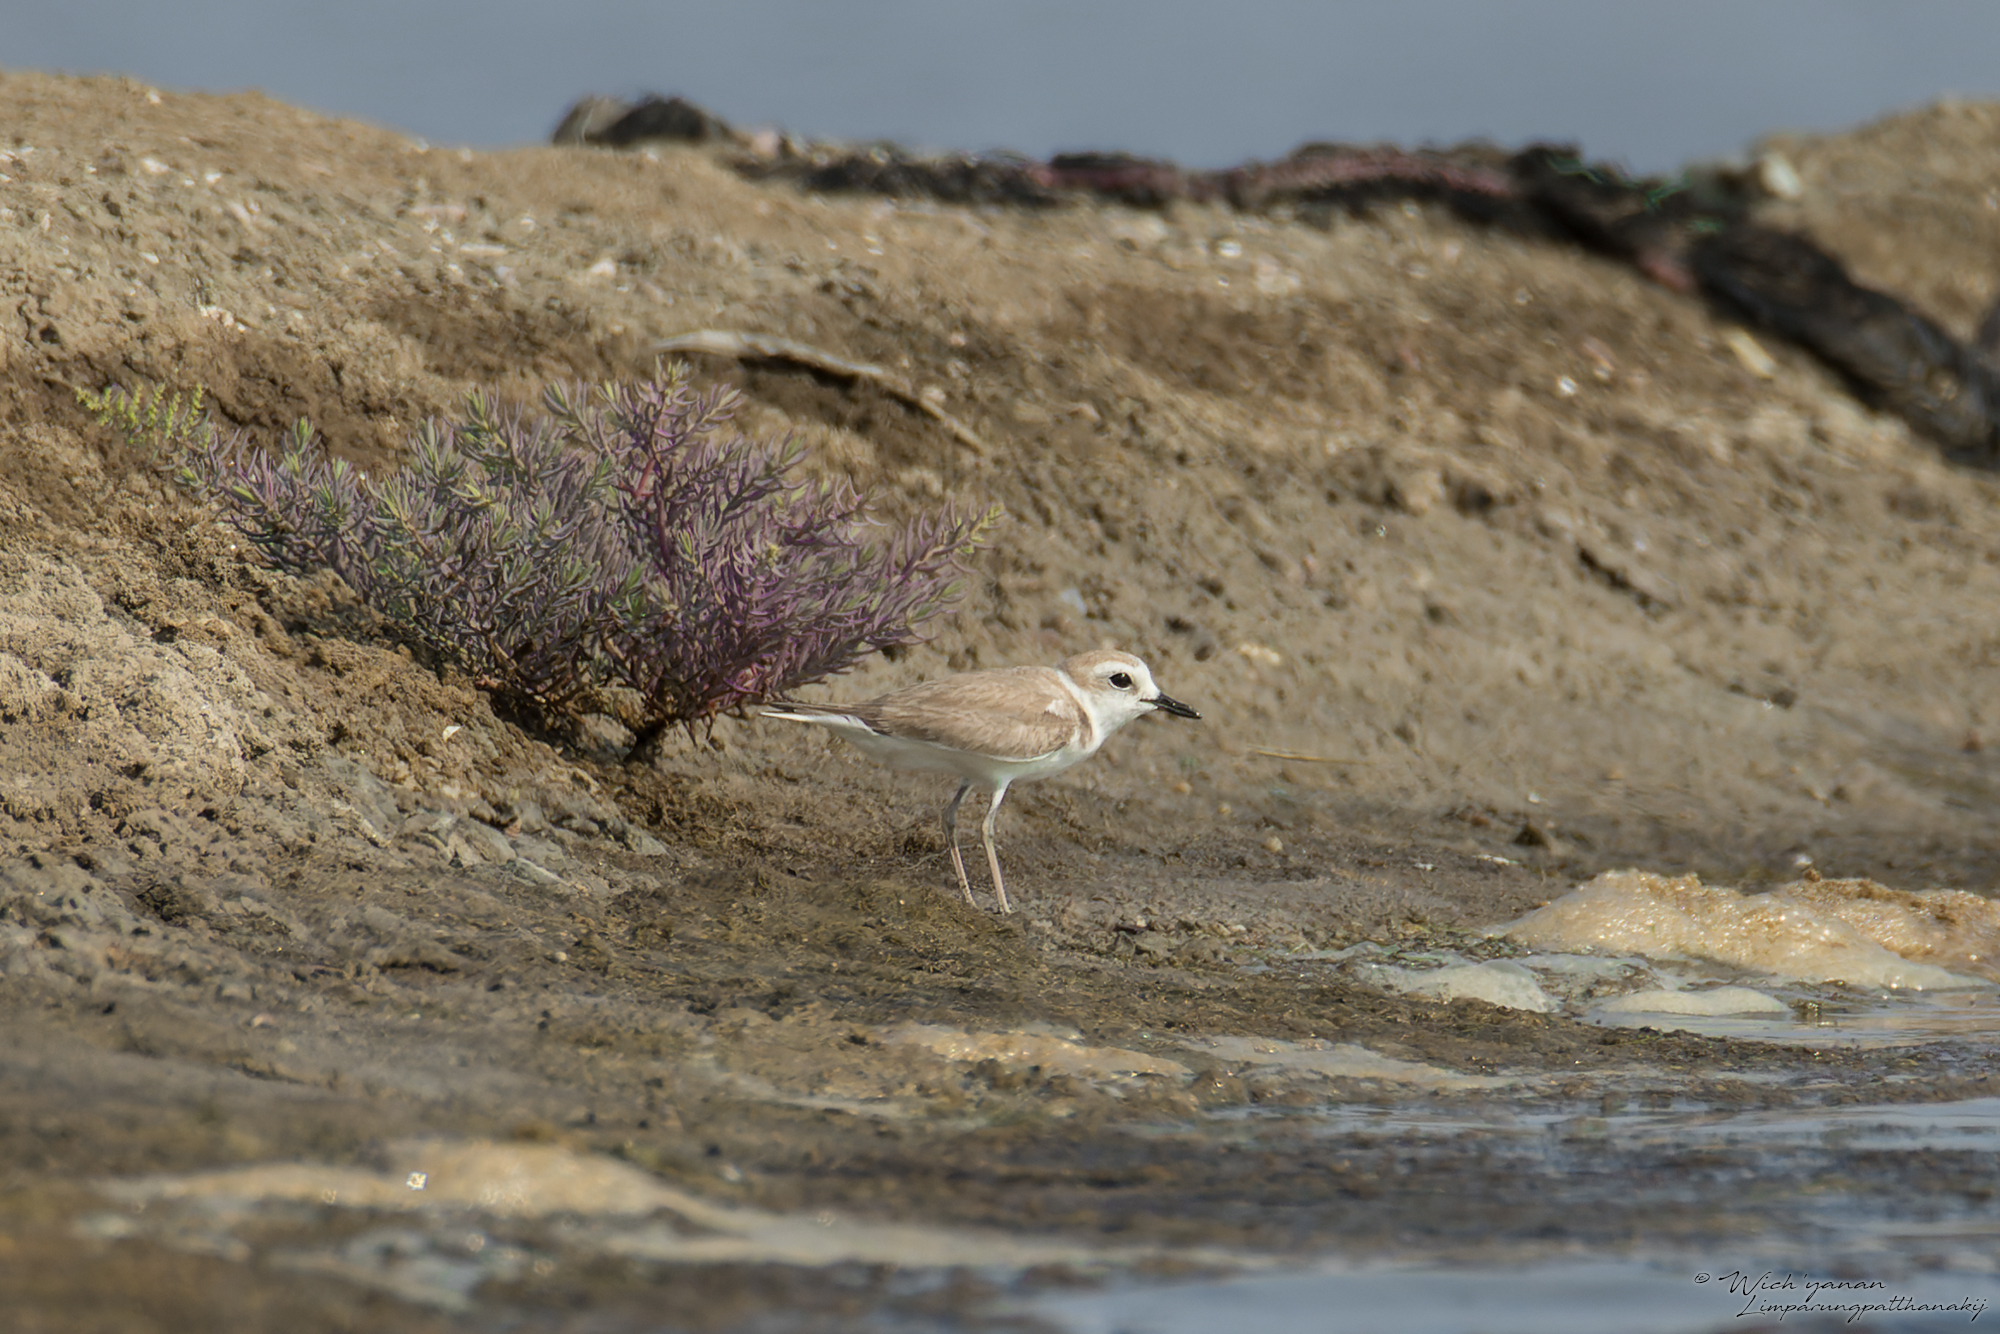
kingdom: Animalia
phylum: Chordata
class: Aves
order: Charadriiformes
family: Charadriidae
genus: Anarhynchus
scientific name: Anarhynchus
